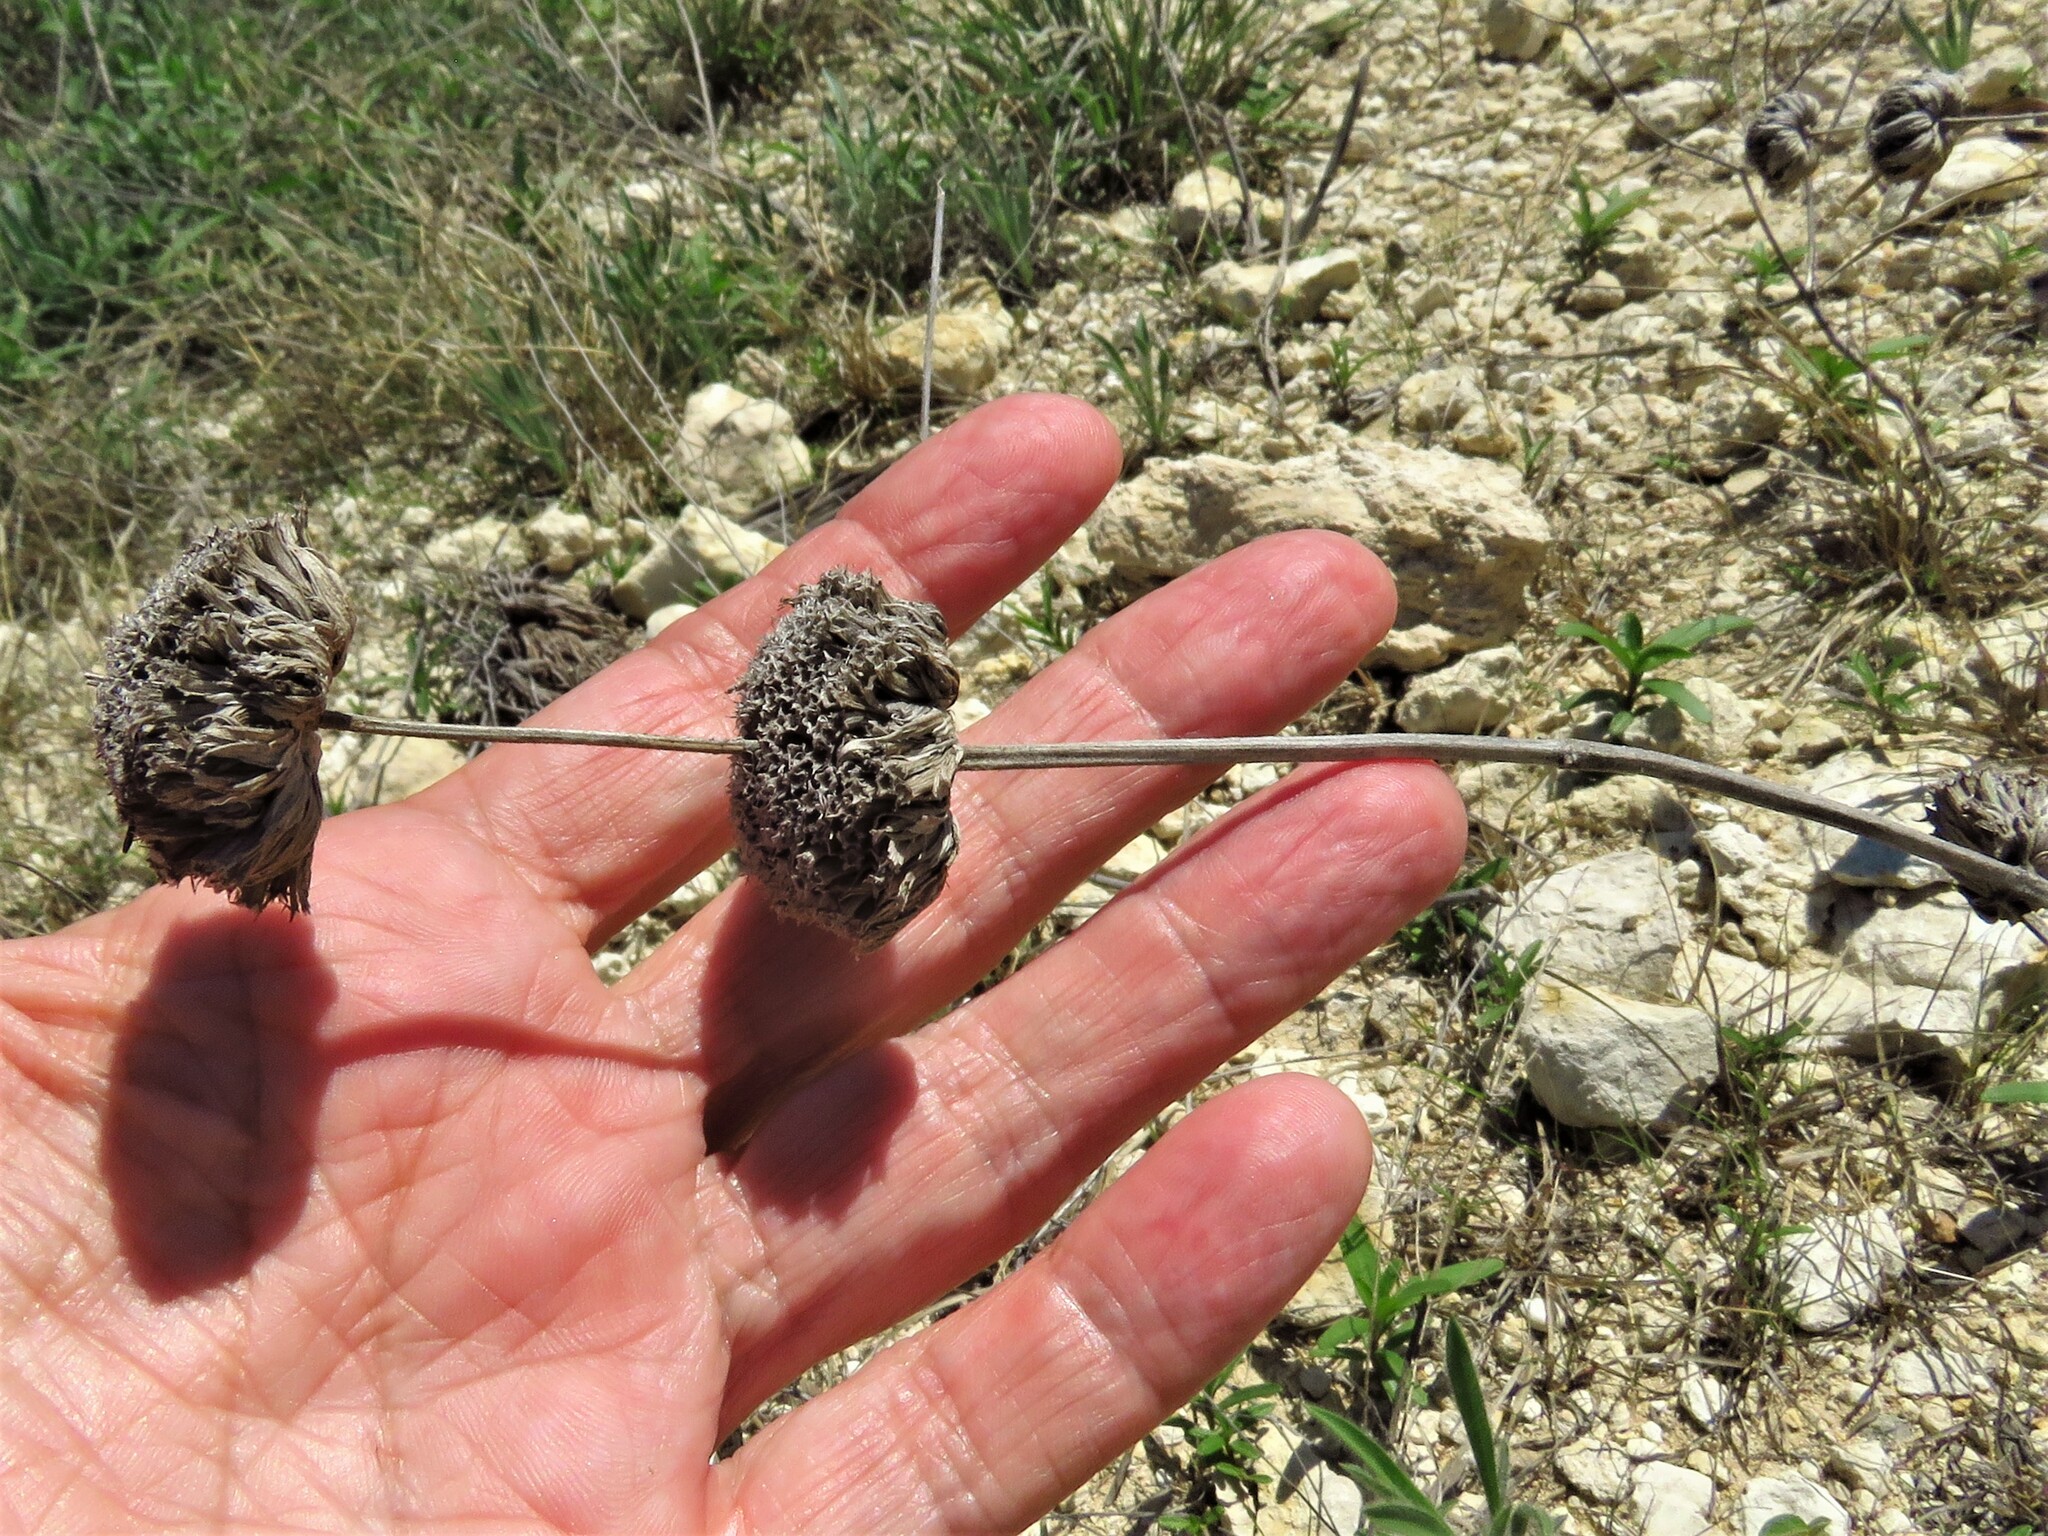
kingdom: Plantae
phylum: Tracheophyta
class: Magnoliopsida
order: Lamiales
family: Lamiaceae
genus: Monarda
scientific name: Monarda citriodora
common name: Lemon beebalm
